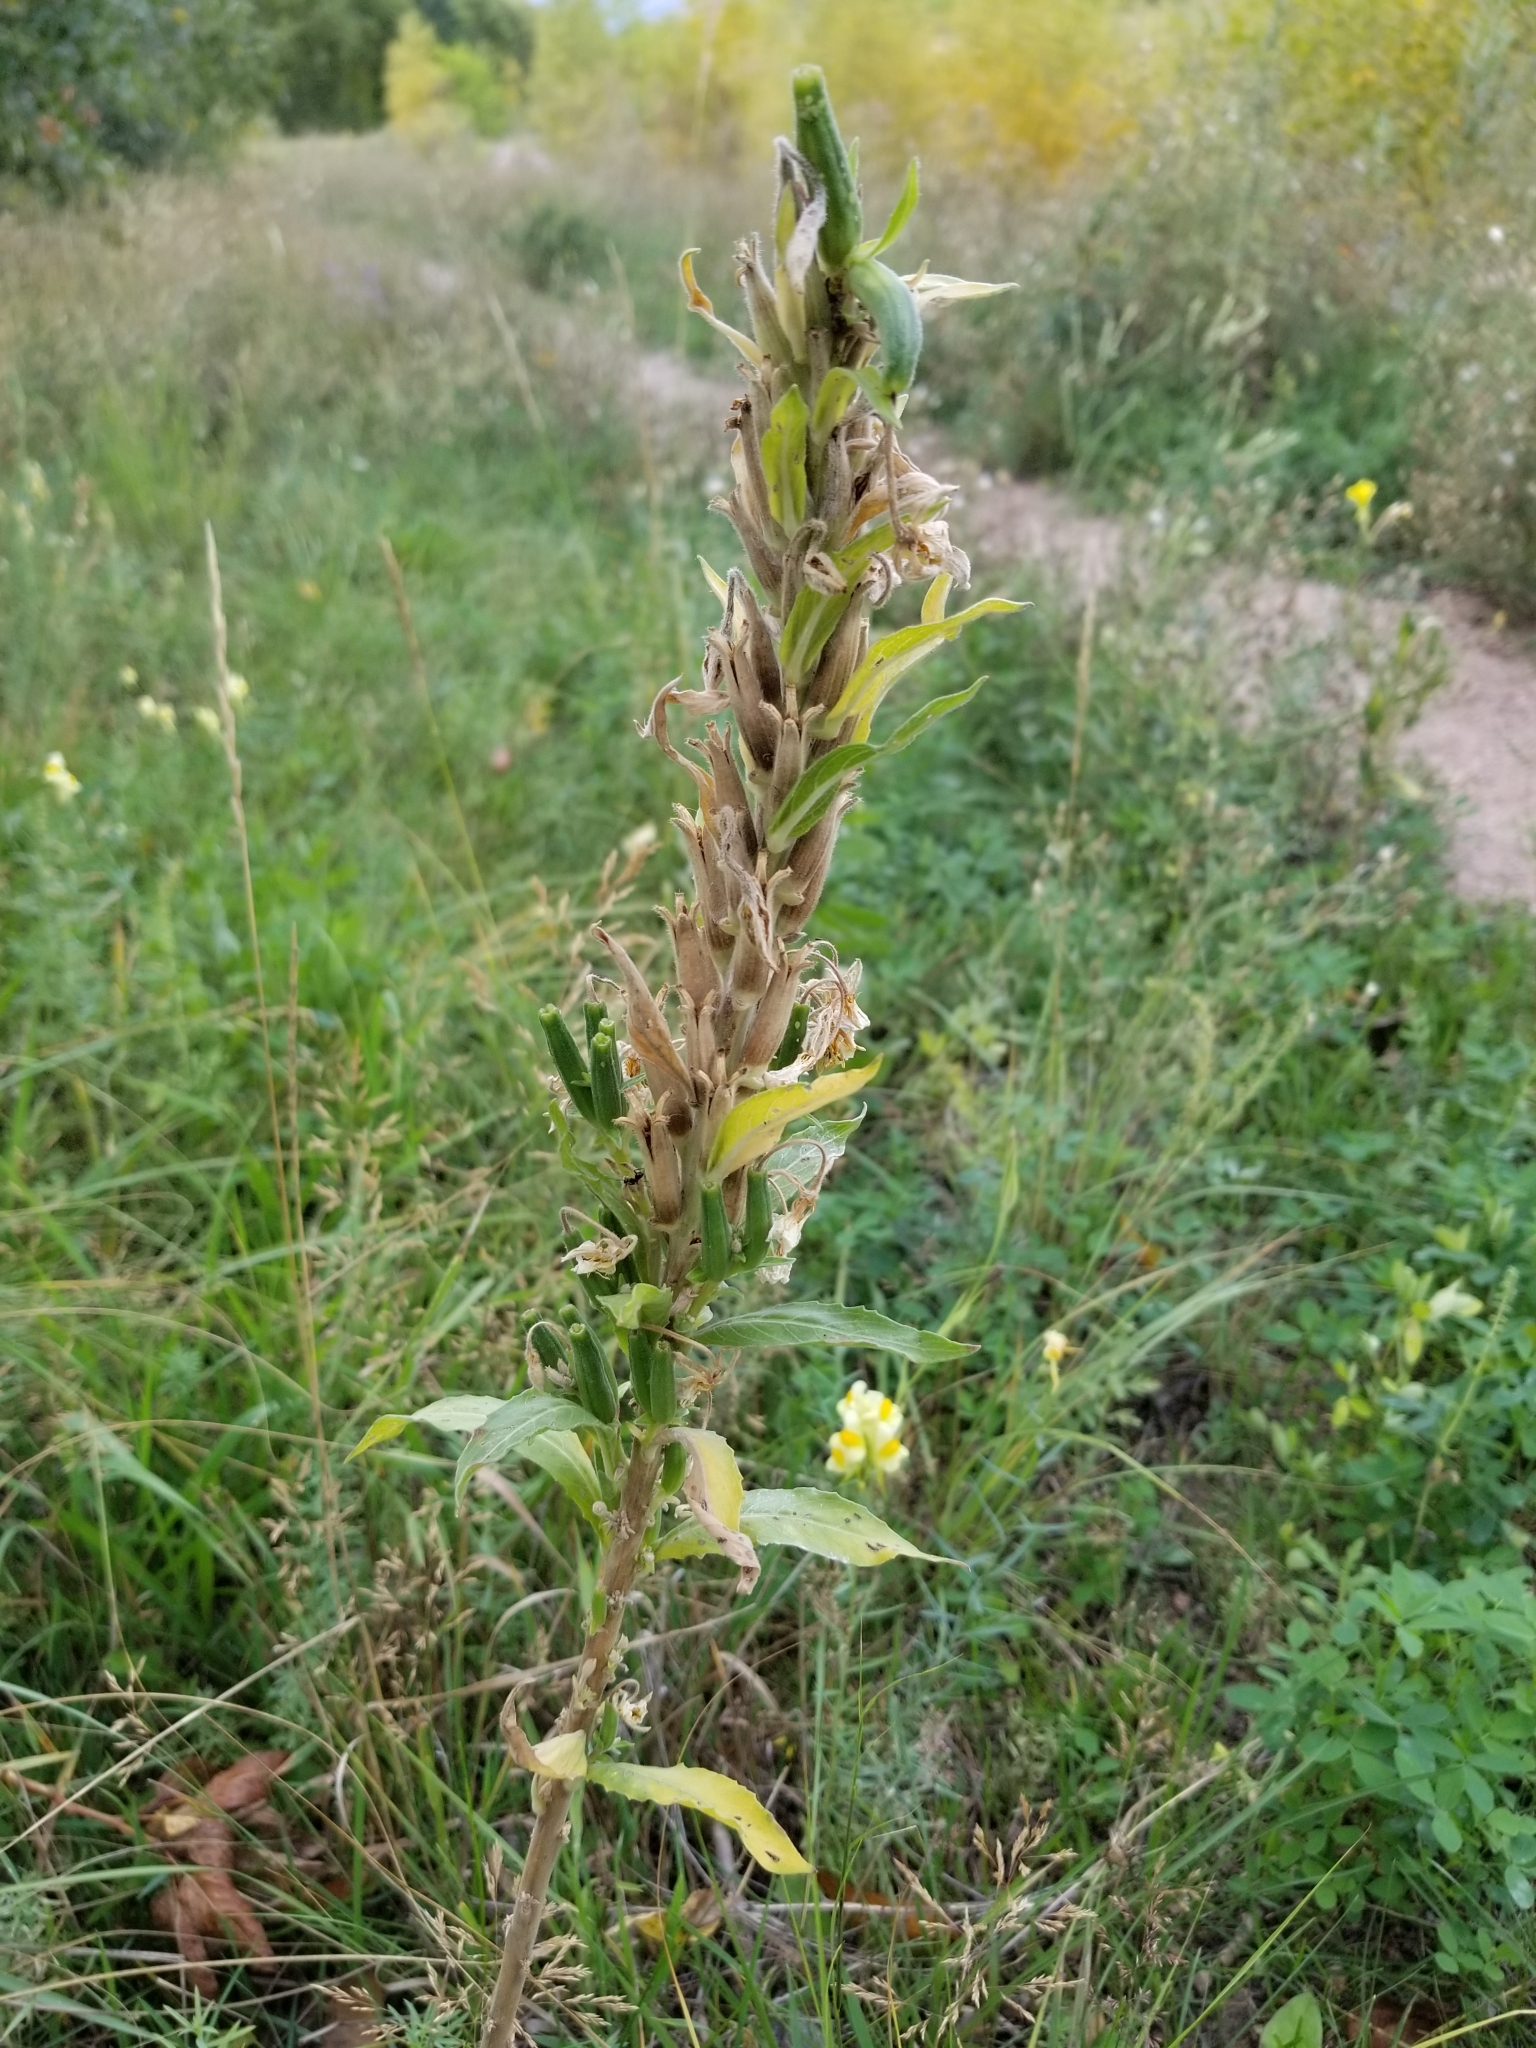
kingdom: Plantae
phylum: Tracheophyta
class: Magnoliopsida
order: Myrtales
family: Onagraceae
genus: Oenothera
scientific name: Oenothera biennis
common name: Common evening-primrose
